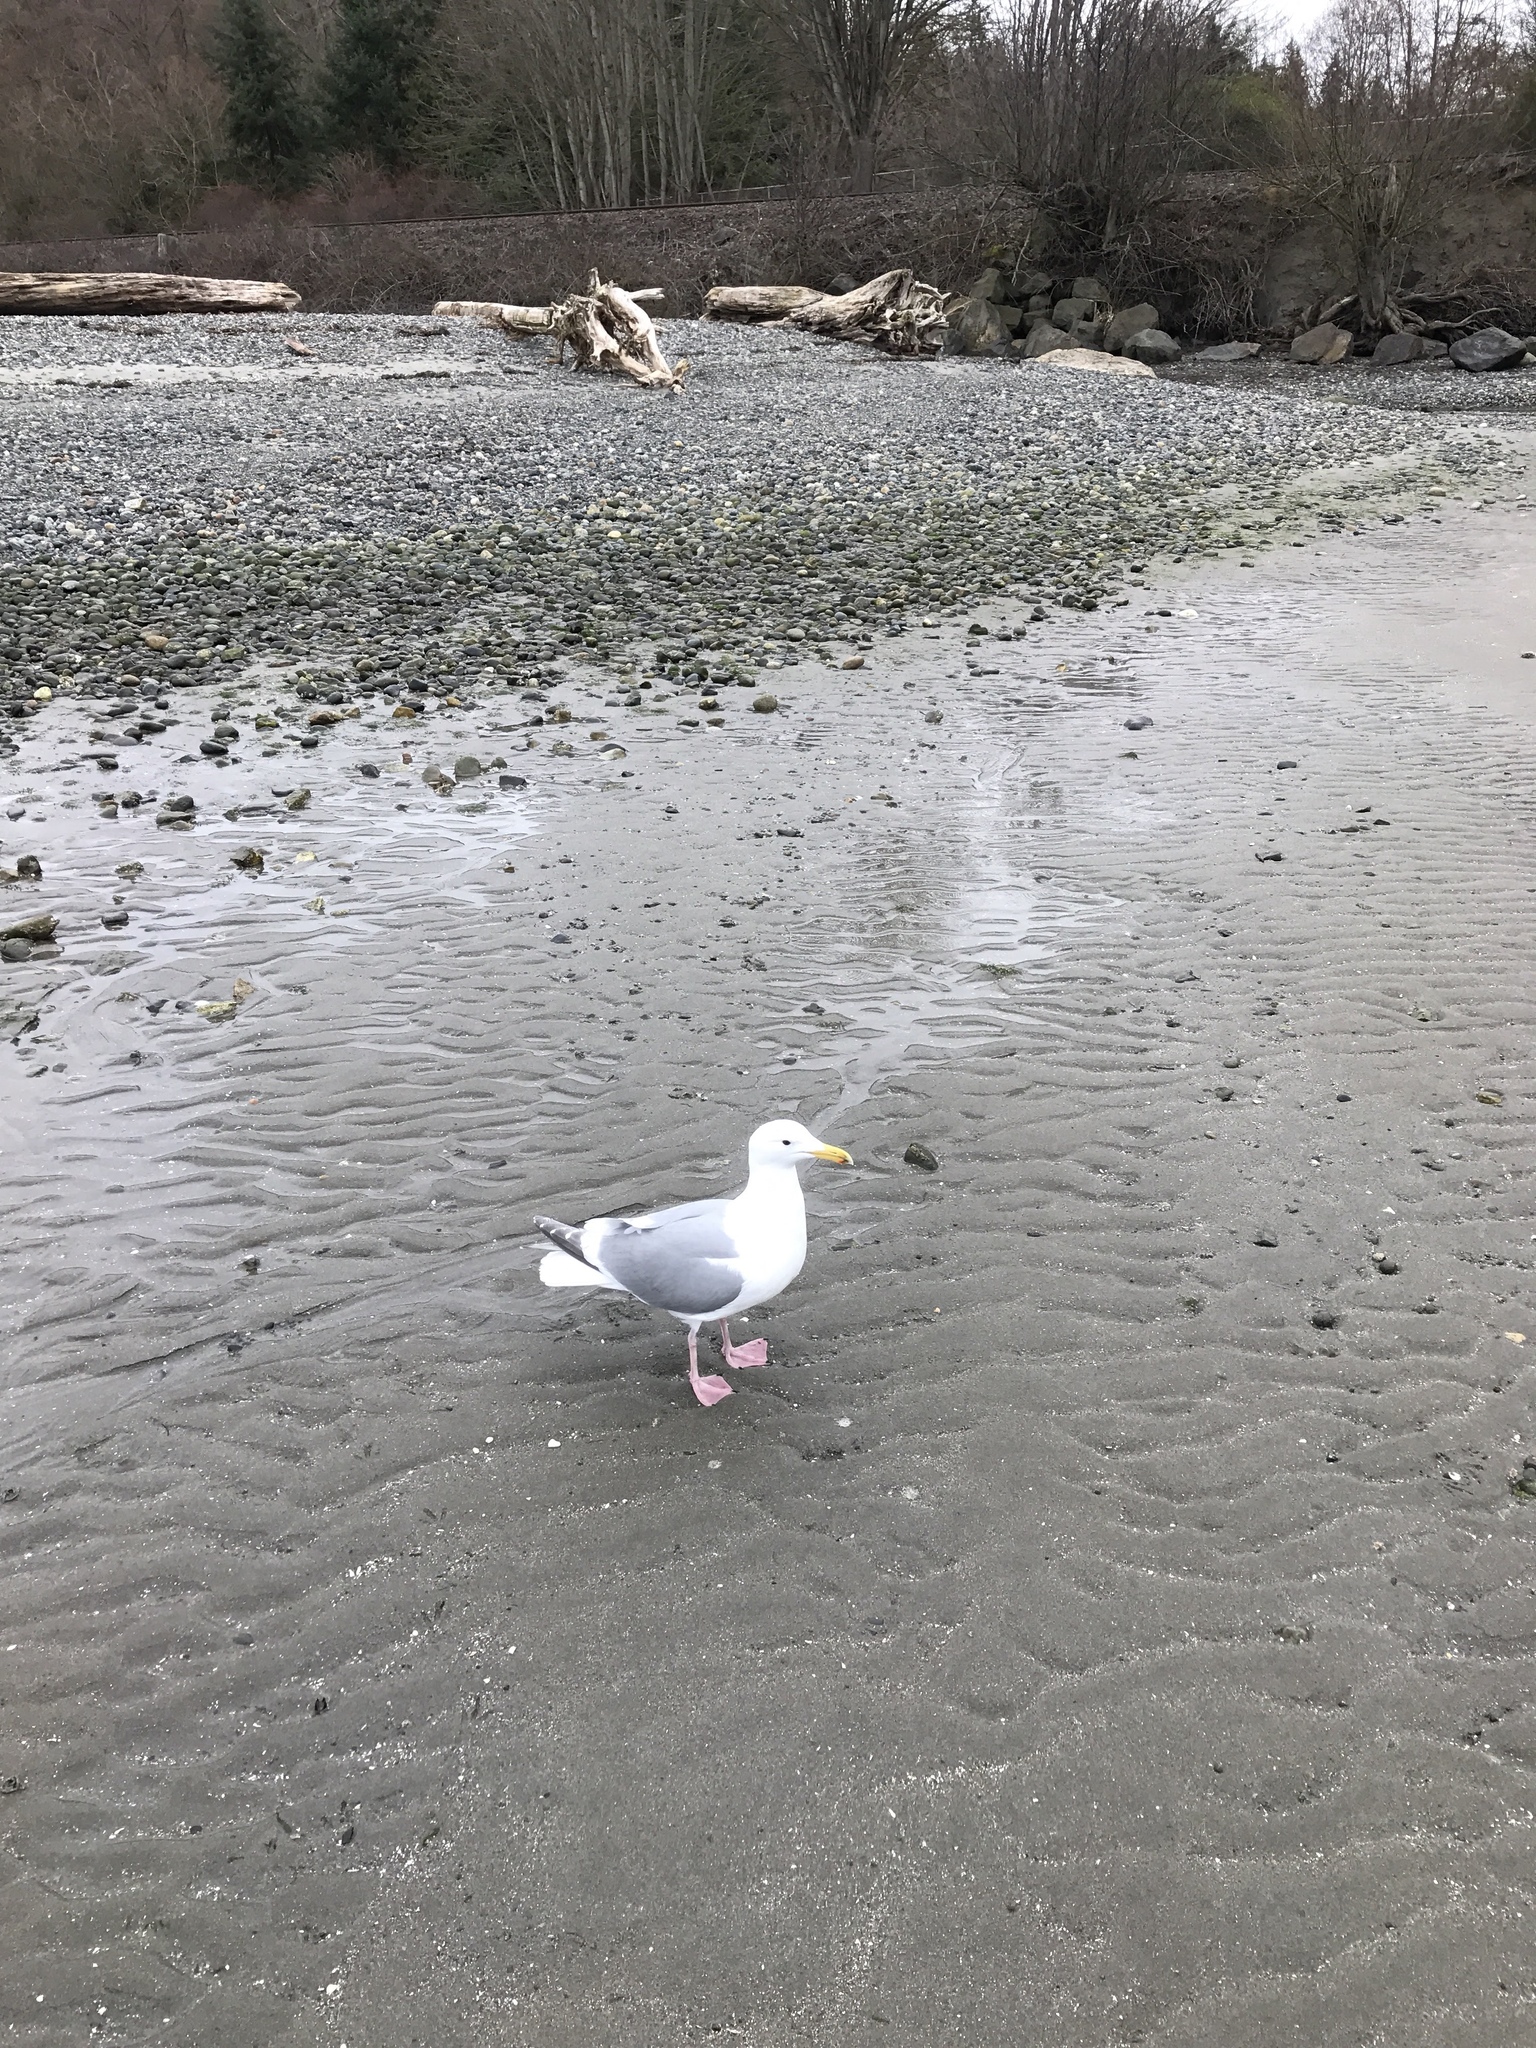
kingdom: Animalia
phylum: Chordata
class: Aves
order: Charadriiformes
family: Laridae
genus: Larus
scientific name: Larus
